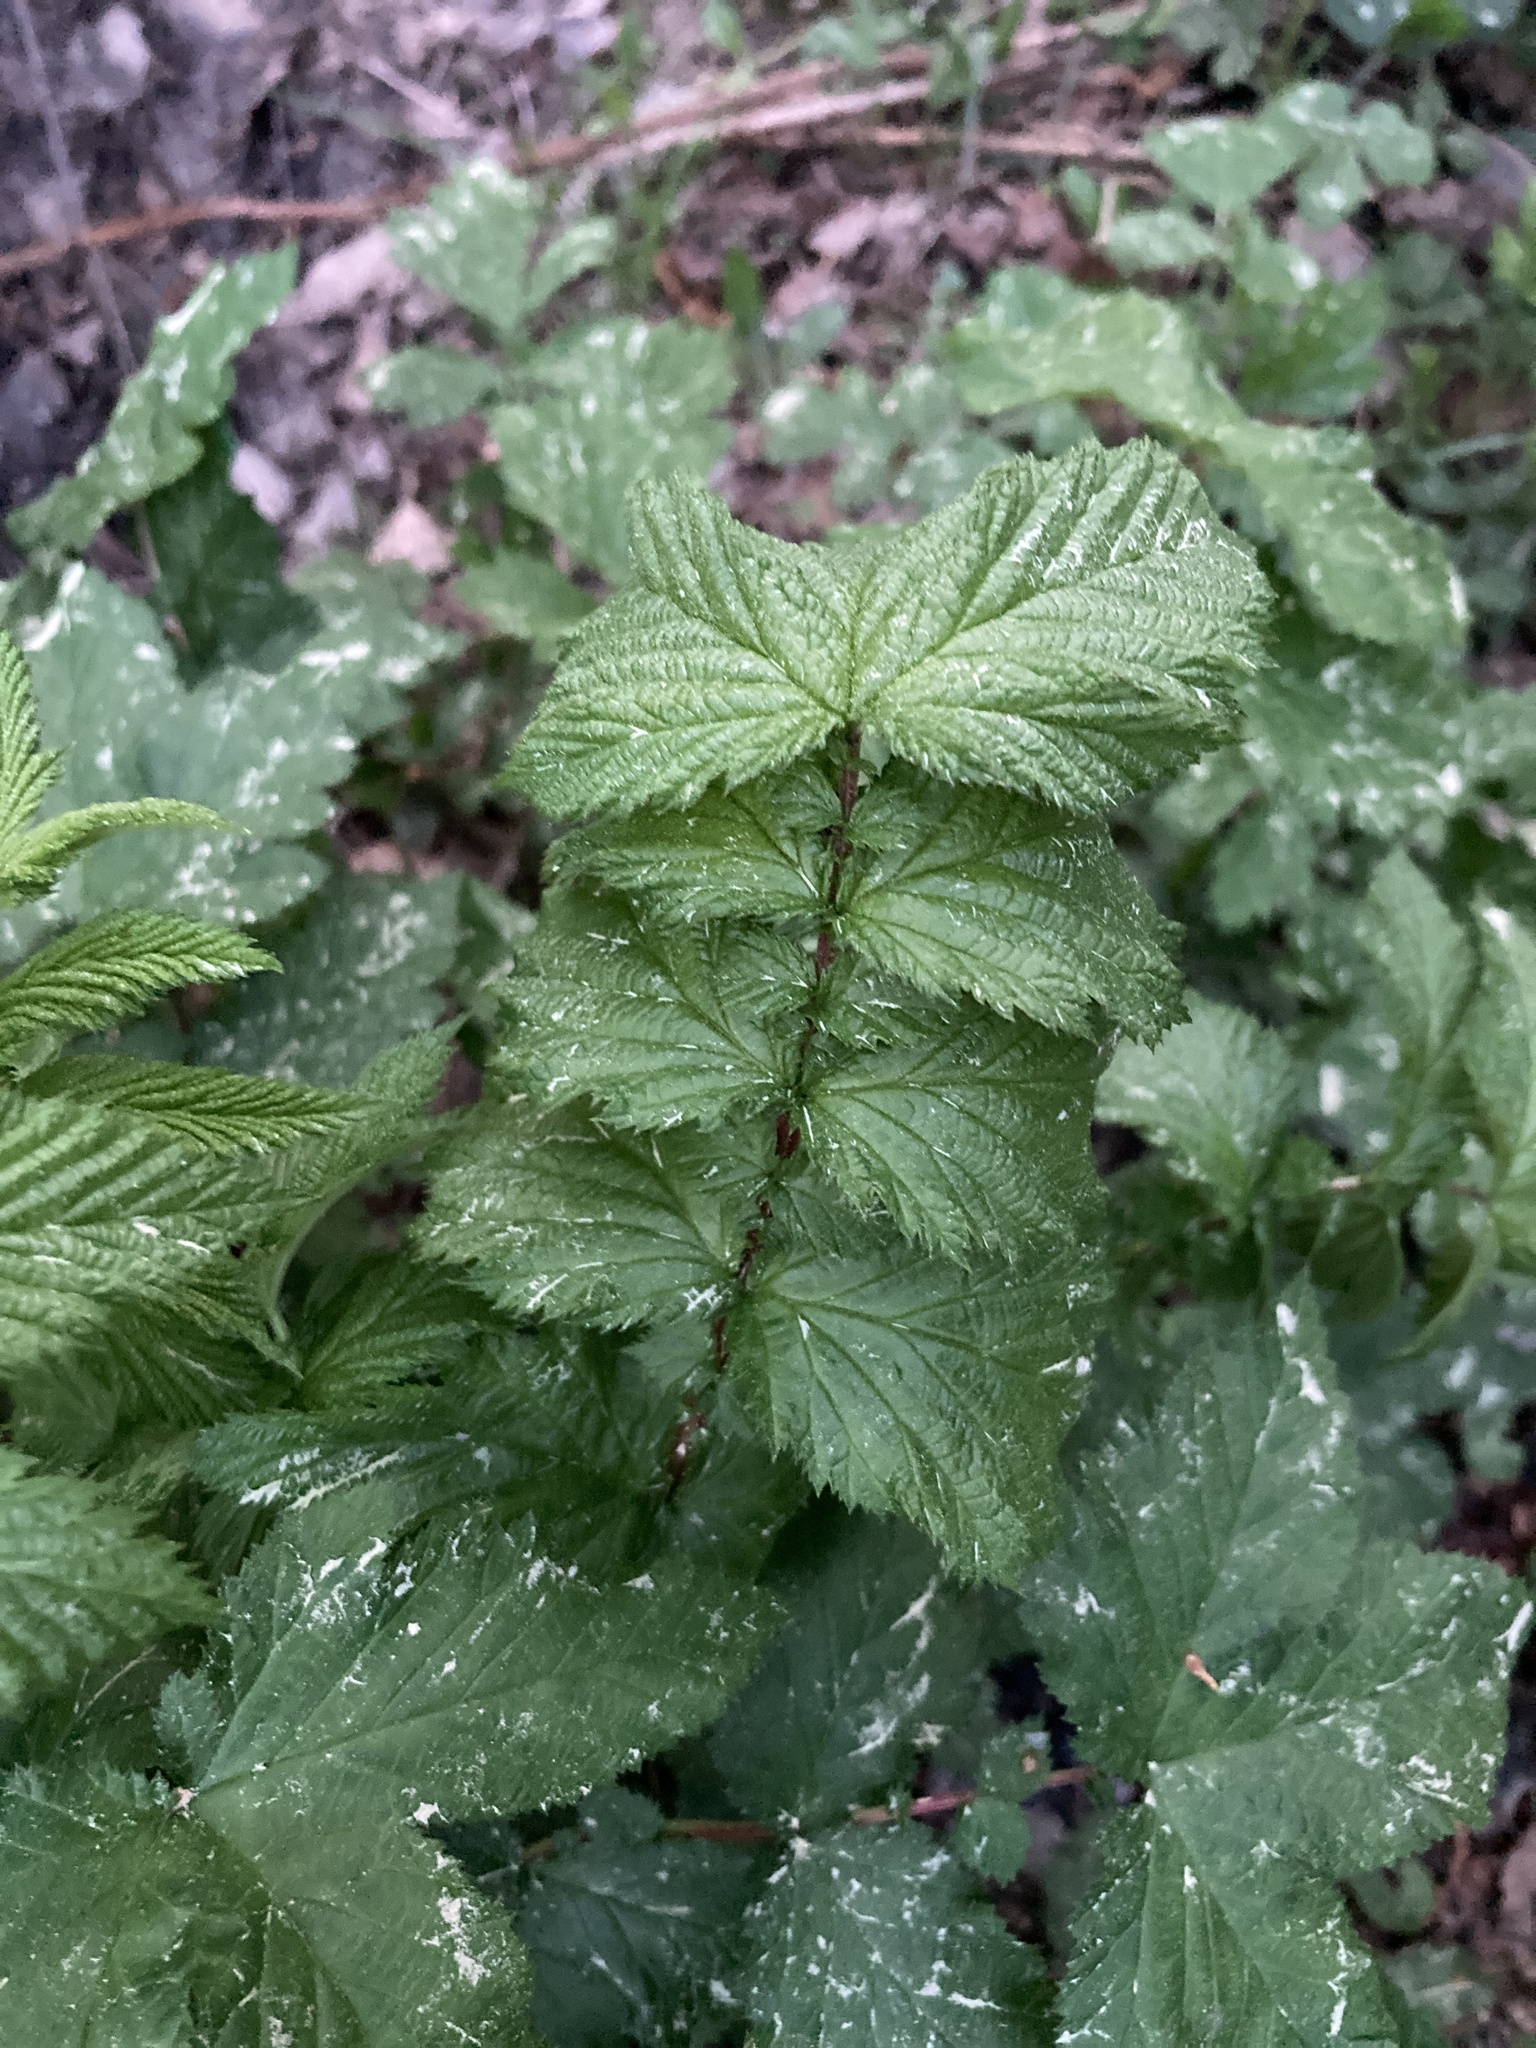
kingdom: Plantae
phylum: Tracheophyta
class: Magnoliopsida
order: Rosales
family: Rosaceae
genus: Filipendula
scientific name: Filipendula ulmaria
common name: Meadowsweet
